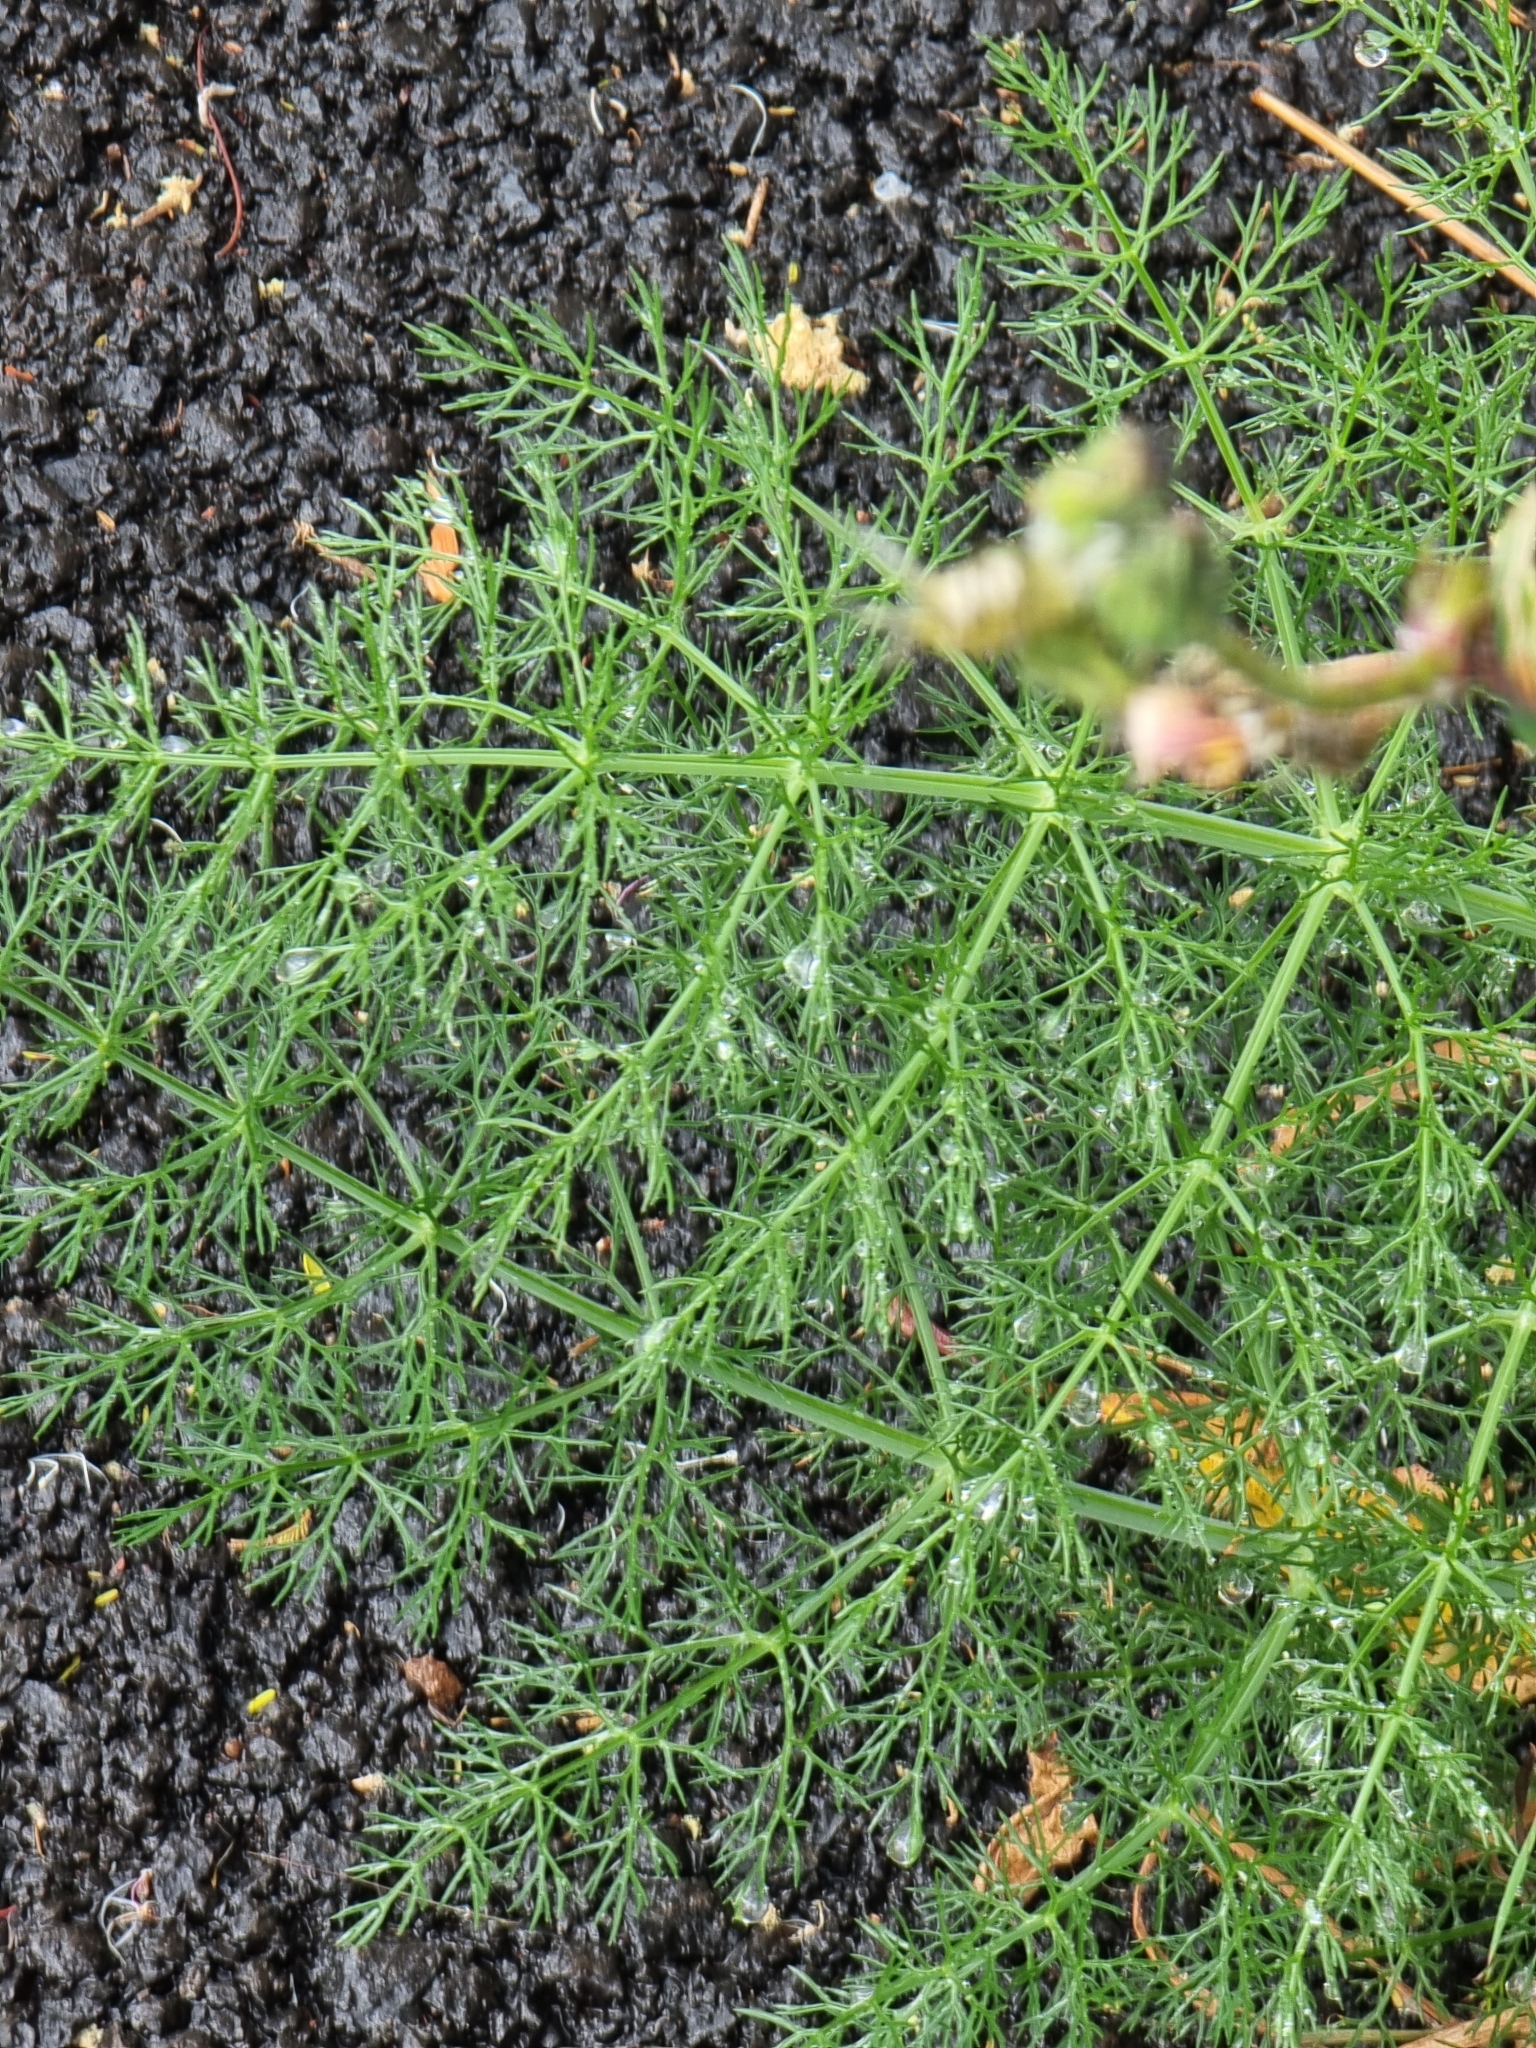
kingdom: Plantae
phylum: Tracheophyta
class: Magnoliopsida
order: Apiales
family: Apiaceae
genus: Foeniculum
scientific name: Foeniculum vulgare
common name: Fennel
